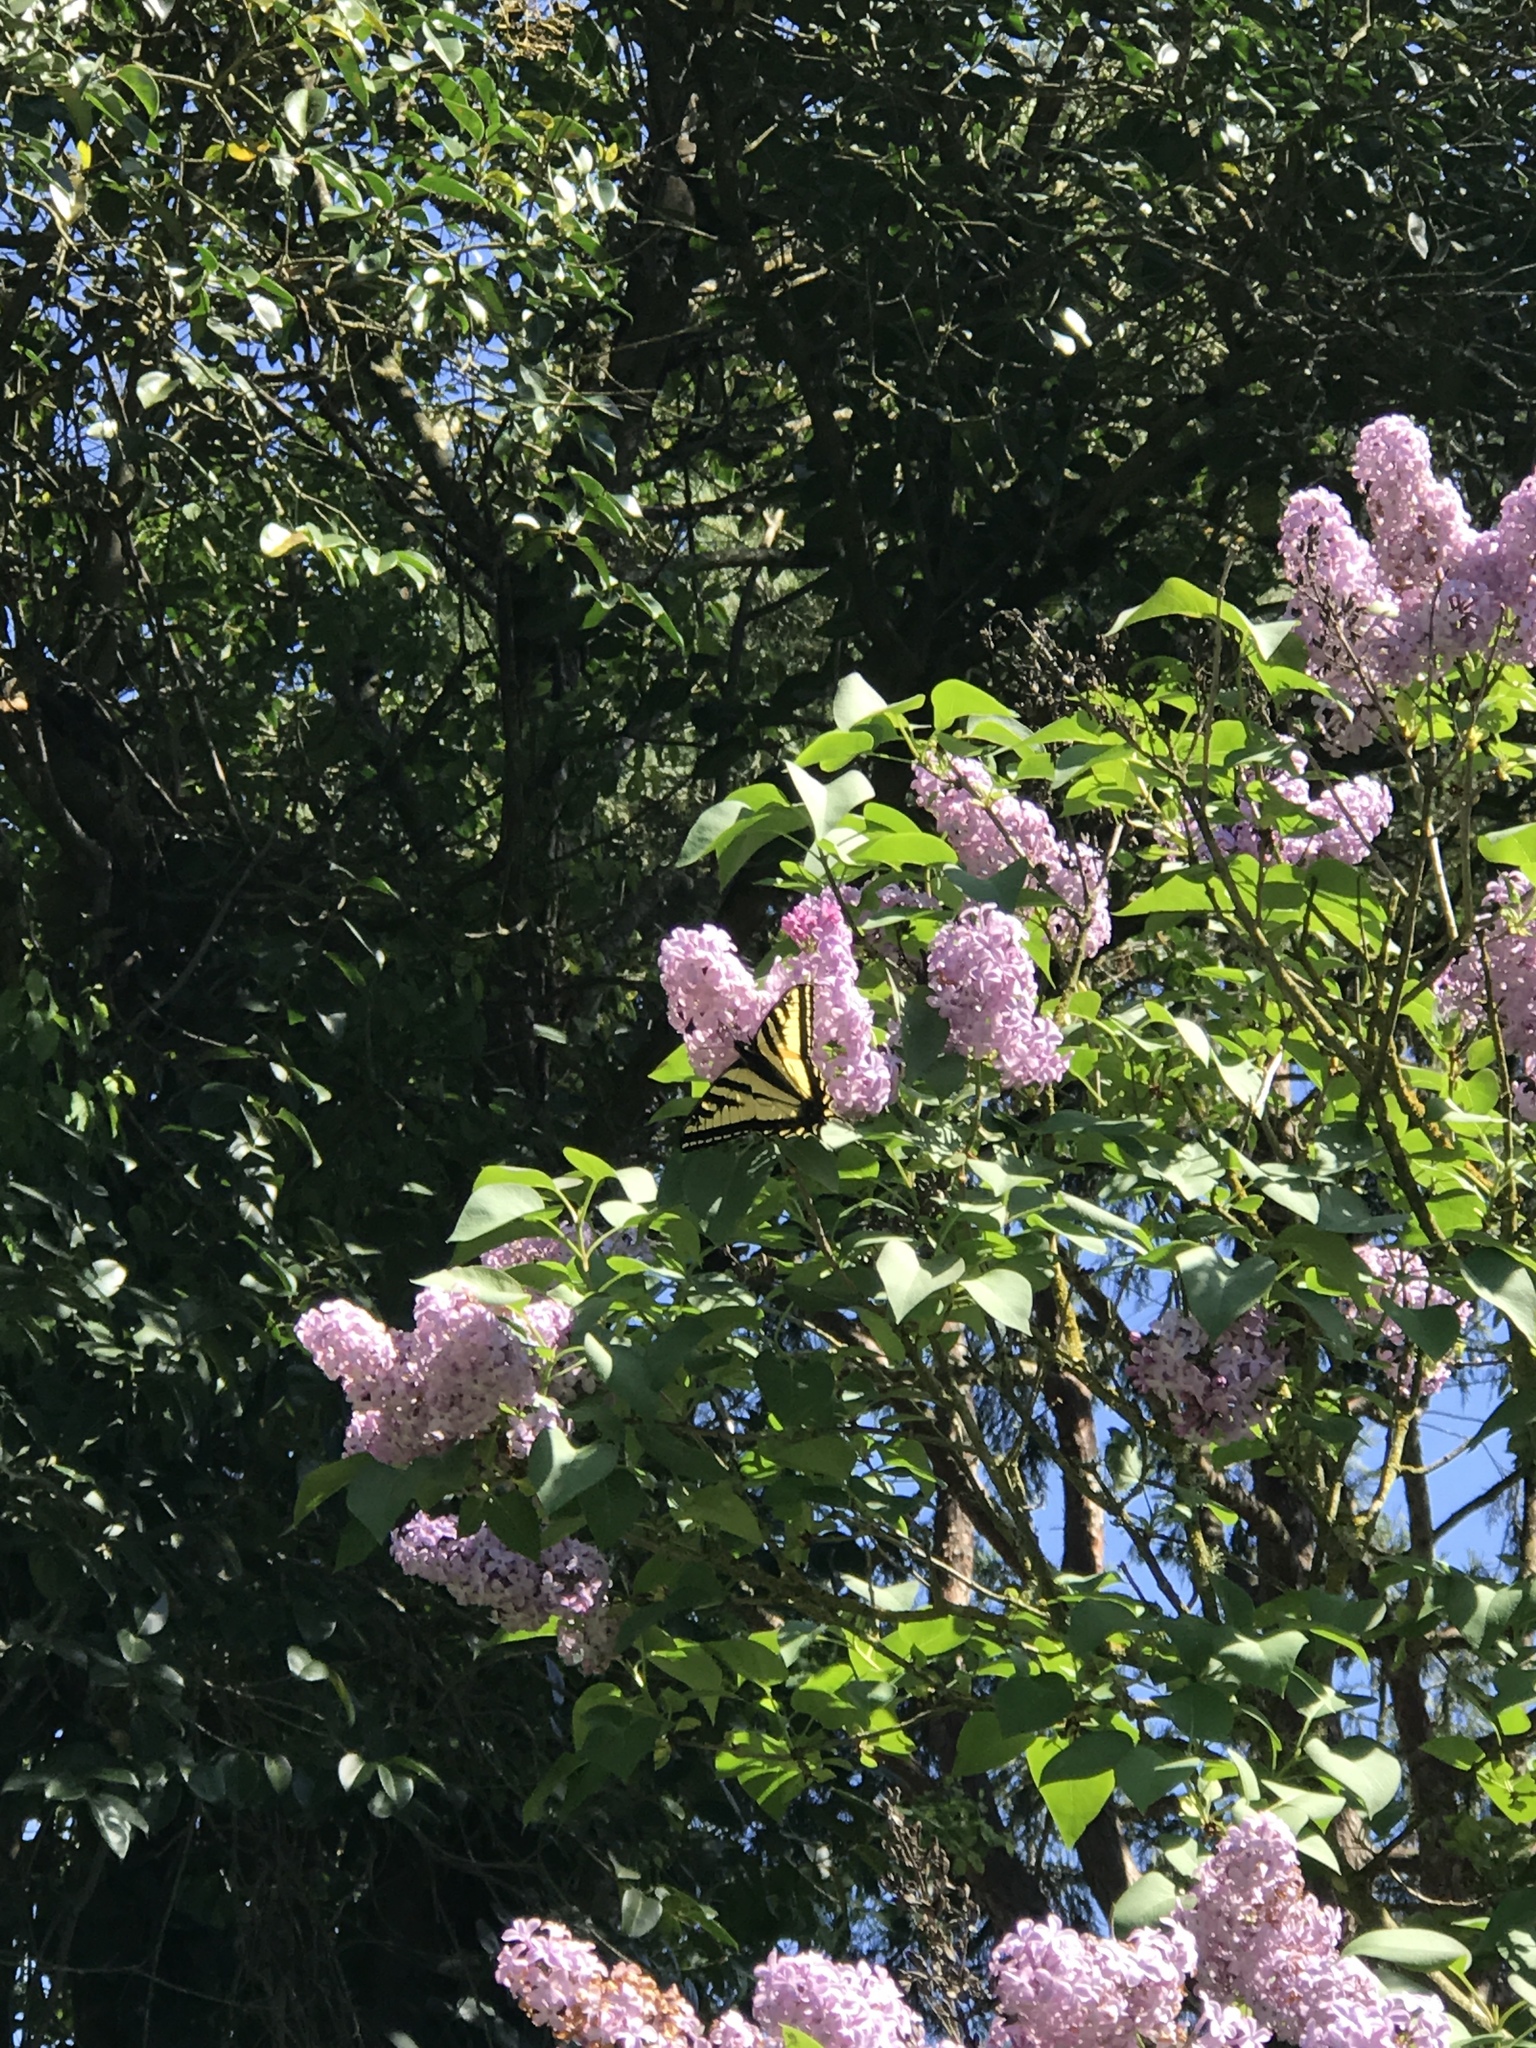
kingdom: Animalia
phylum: Arthropoda
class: Insecta
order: Lepidoptera
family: Papilionidae
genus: Papilio
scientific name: Papilio rutulus
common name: Western tiger swallowtail
